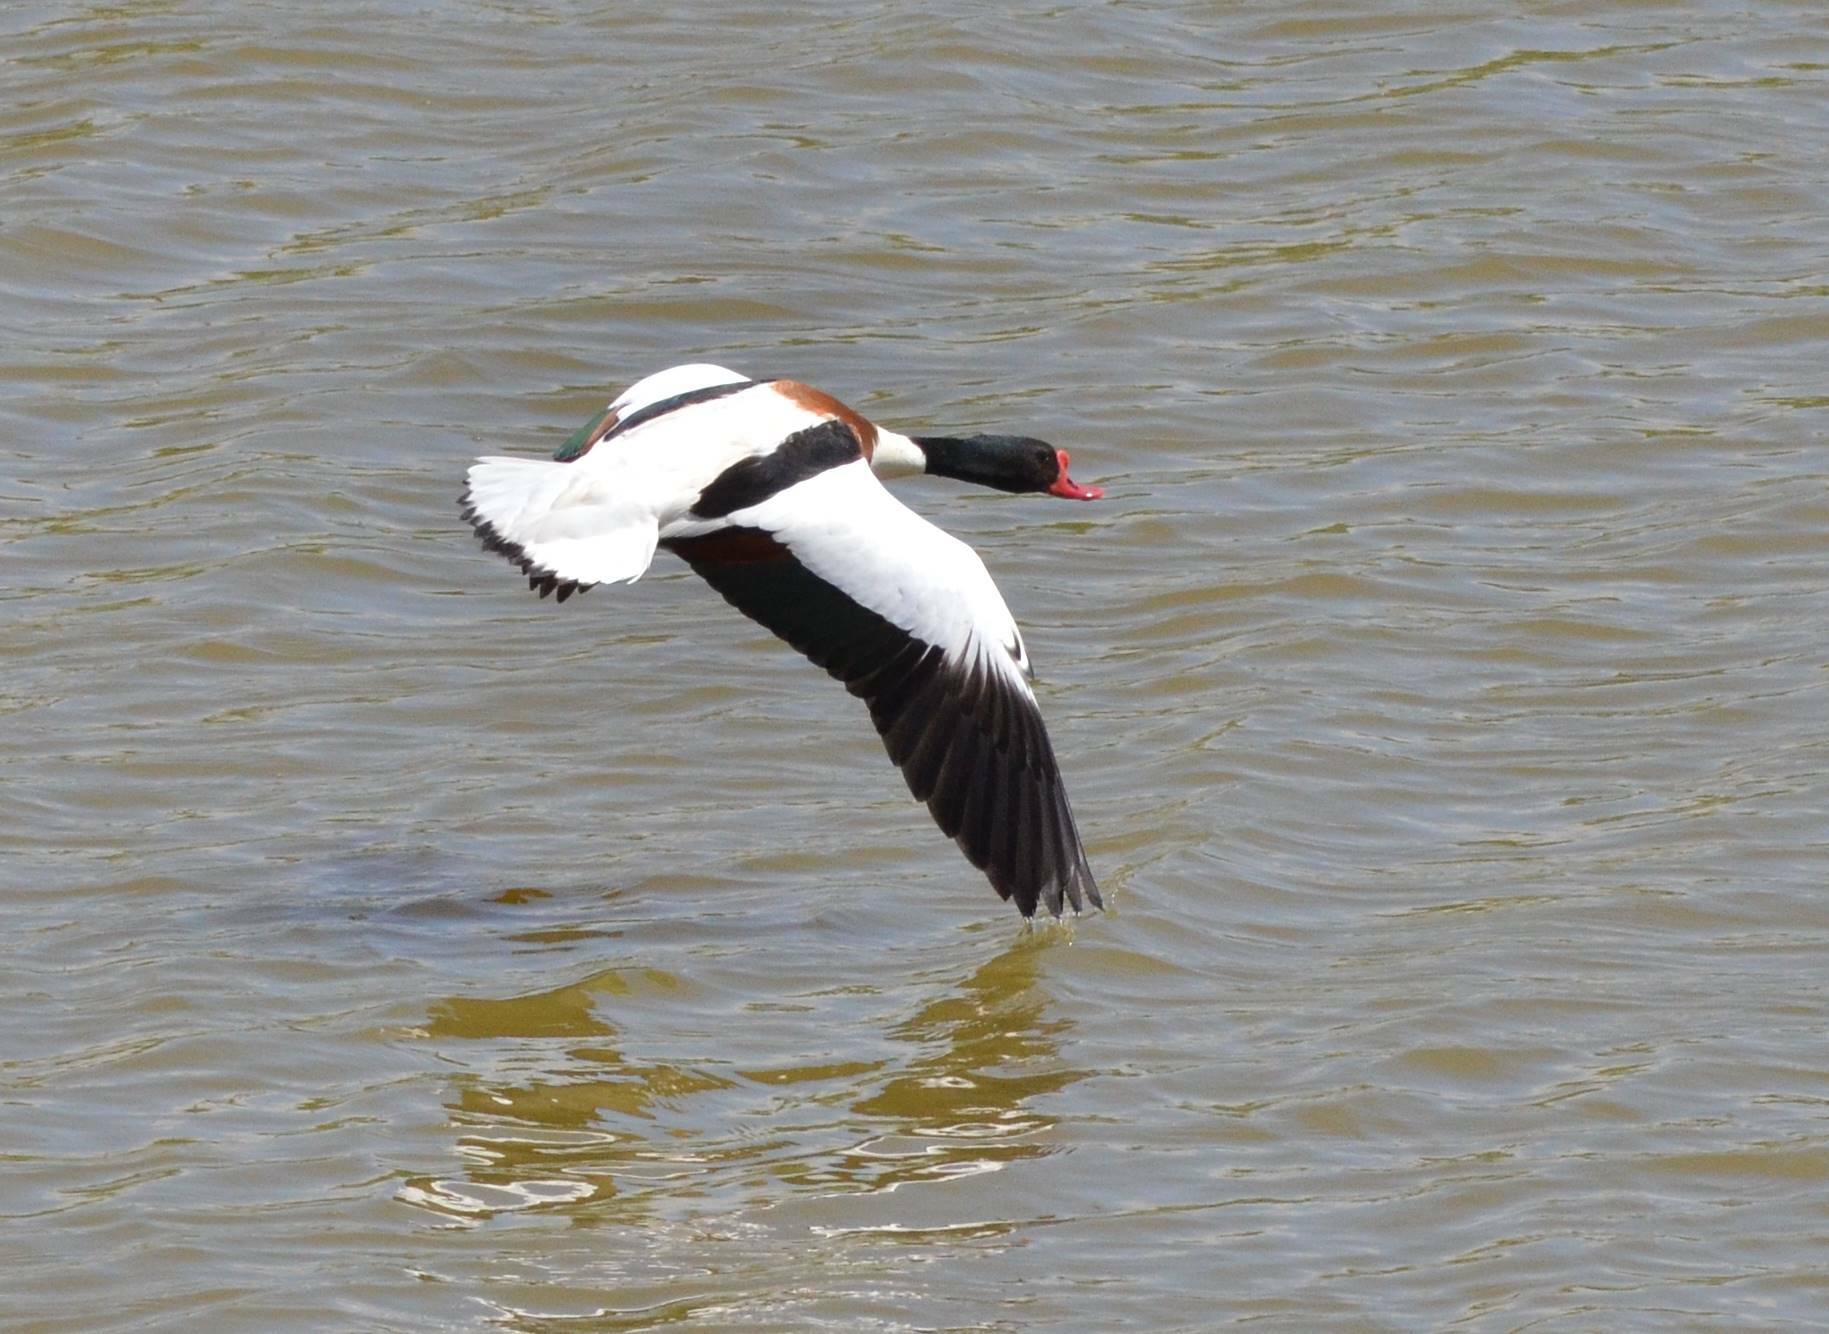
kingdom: Animalia
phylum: Chordata
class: Aves
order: Anseriformes
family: Anatidae
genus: Tadorna
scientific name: Tadorna tadorna
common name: Common shelduck
